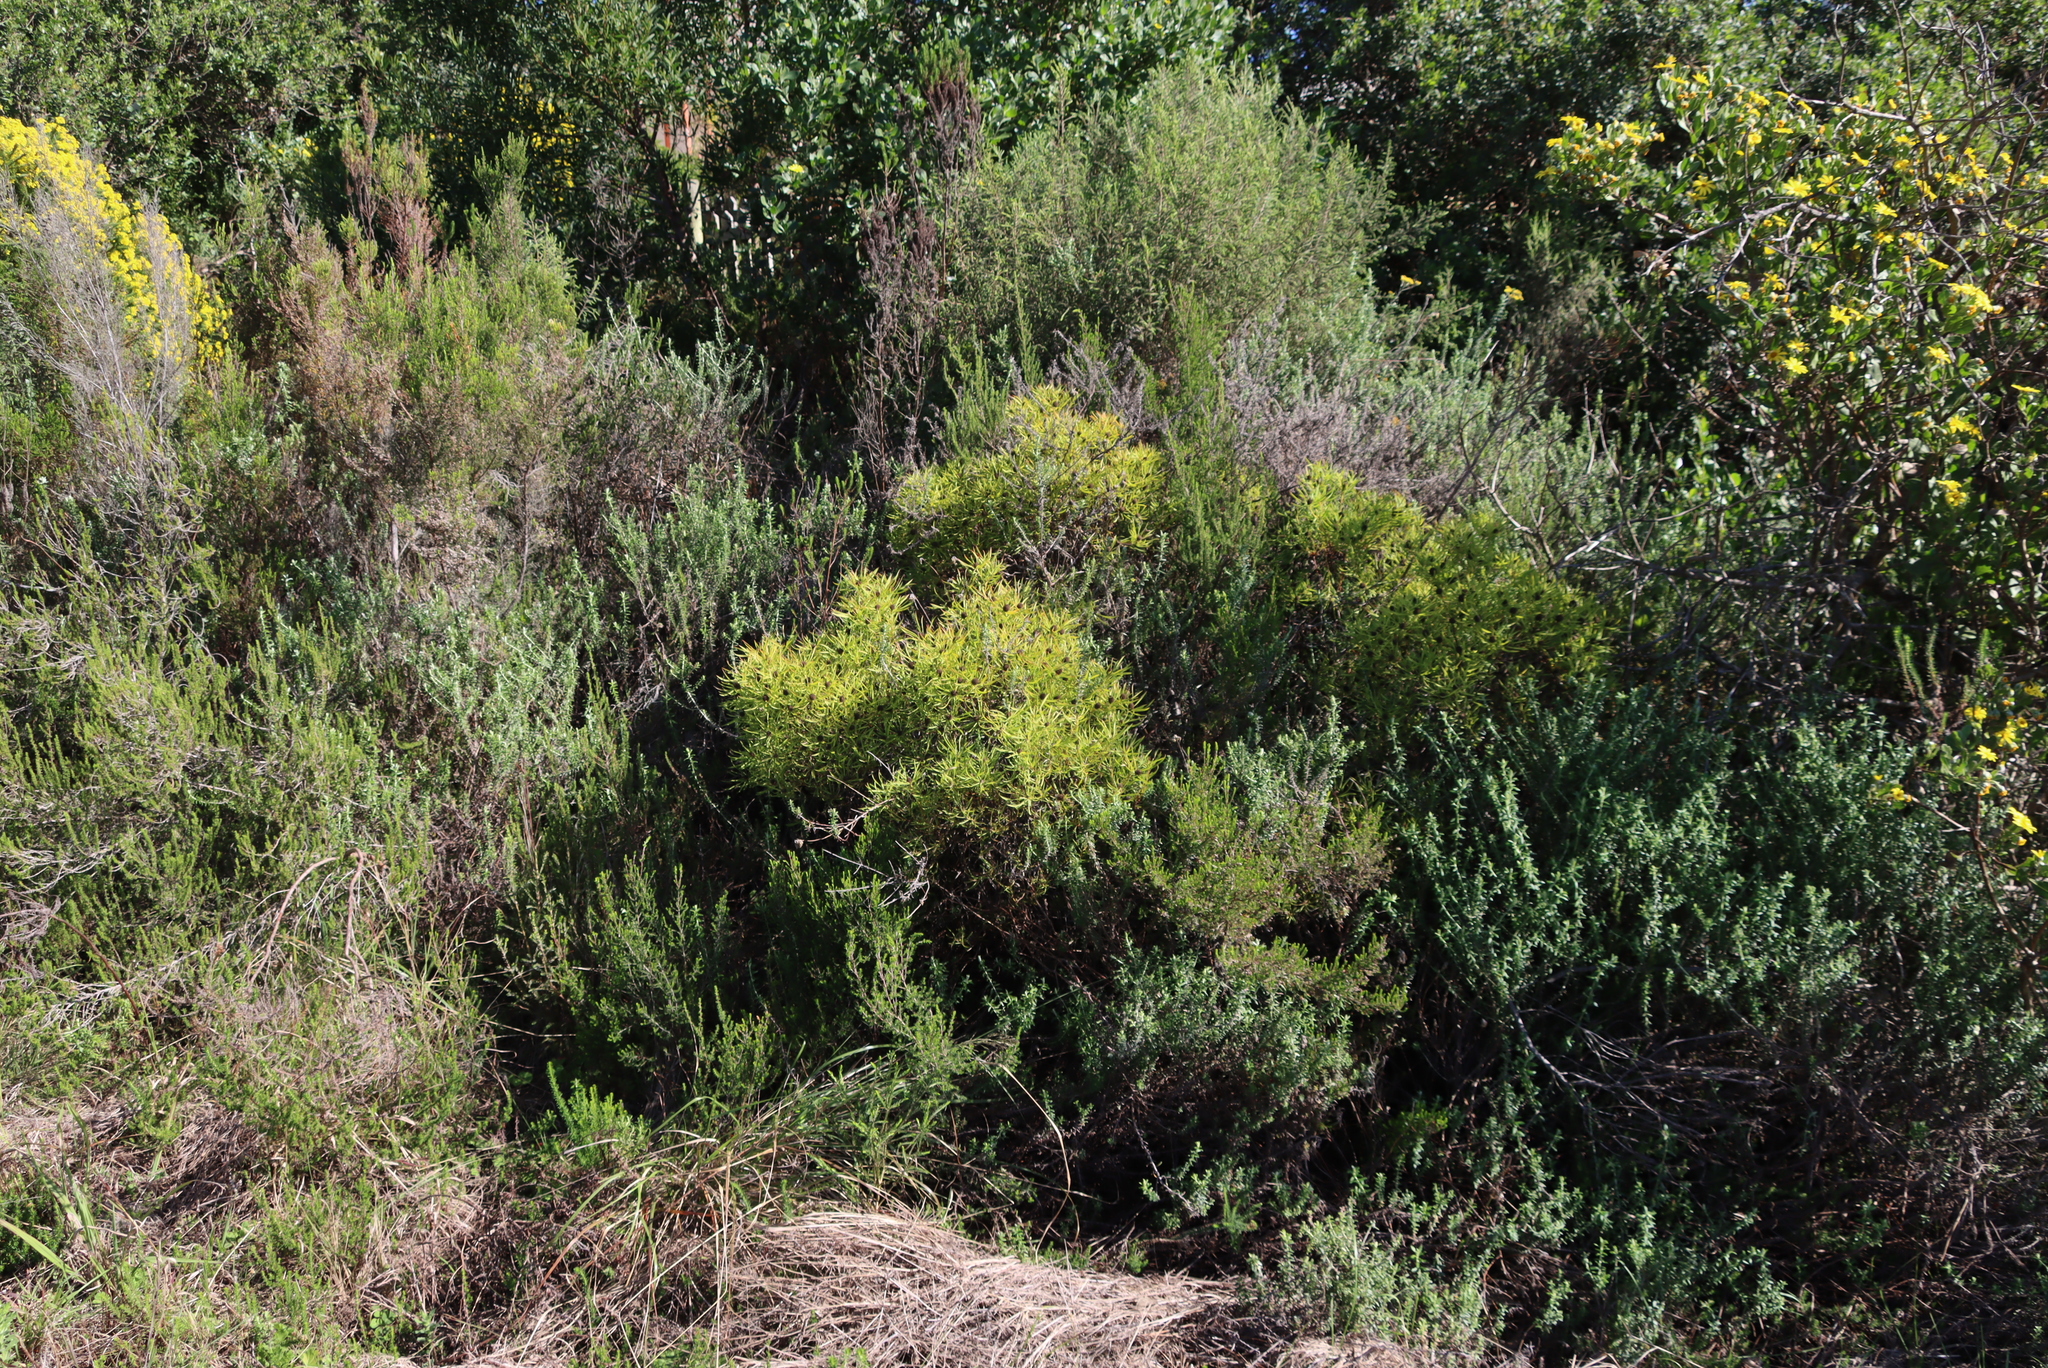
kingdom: Plantae
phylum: Tracheophyta
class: Magnoliopsida
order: Proteales
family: Proteaceae
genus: Leucadendron
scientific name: Leucadendron salignum
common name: Common sunshine conebush
